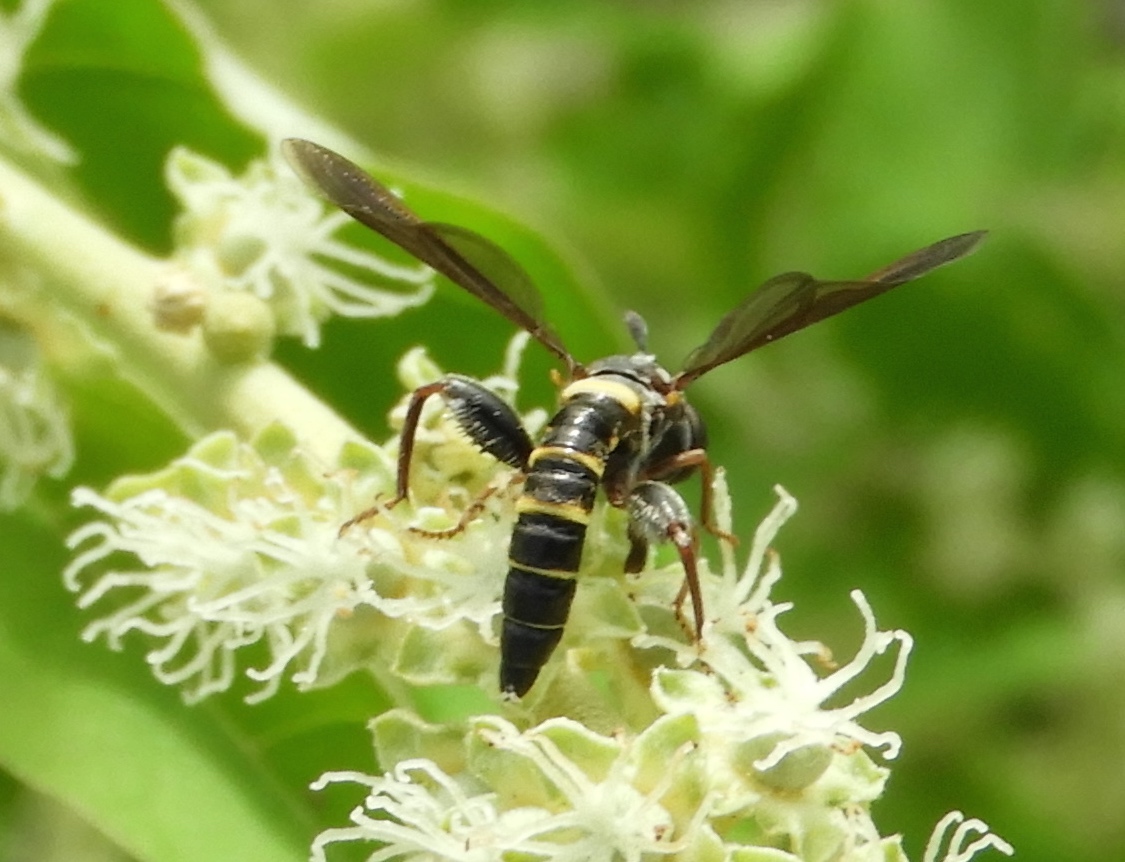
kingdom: Animalia
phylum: Arthropoda
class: Insecta
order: Diptera
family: Mydidae
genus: Mydas
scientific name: Mydas hardyi
